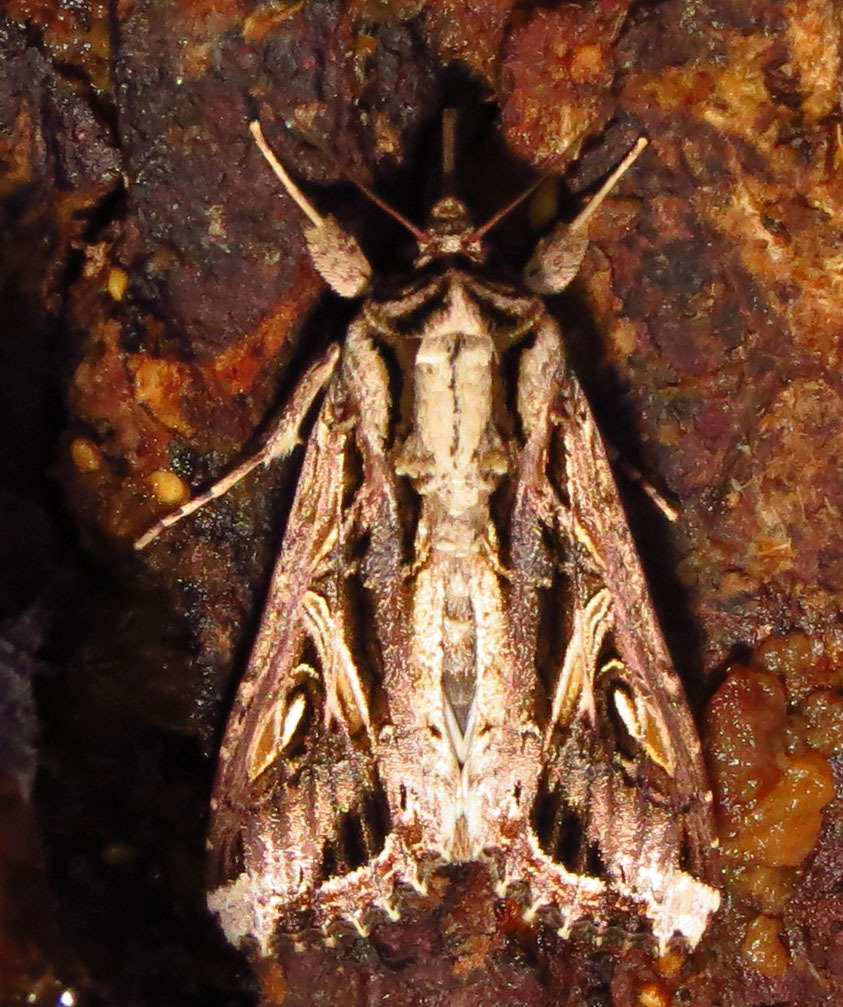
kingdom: Animalia
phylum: Arthropoda
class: Insecta
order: Lepidoptera
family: Noctuidae
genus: Spodoptera
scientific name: Spodoptera dolichos
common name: Sweetpotato armyworm
